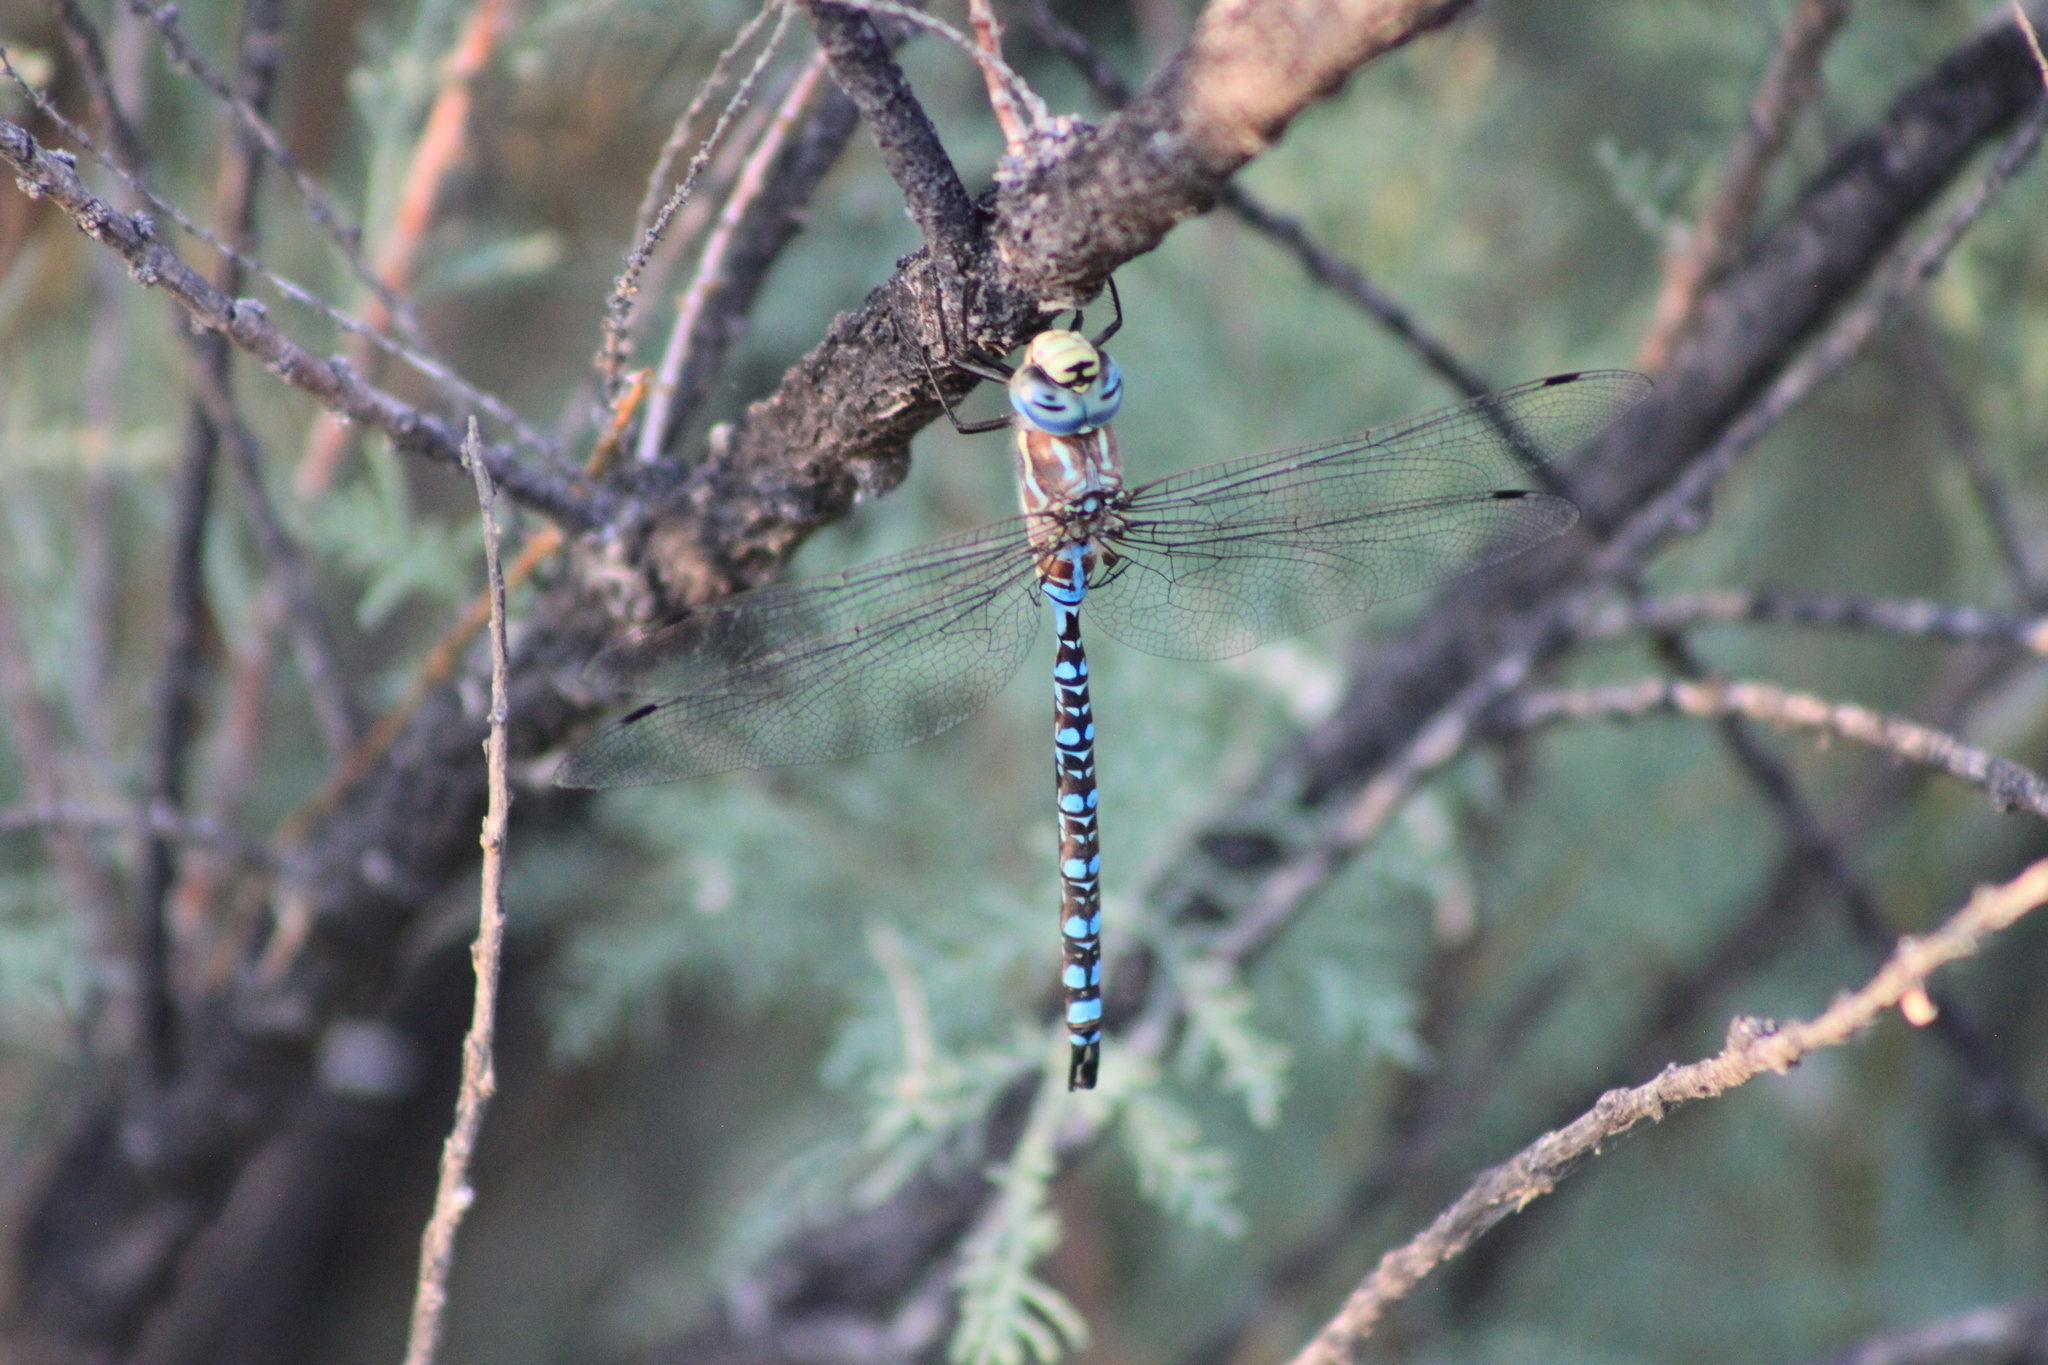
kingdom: Animalia
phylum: Arthropoda
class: Insecta
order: Odonata
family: Aeshnidae
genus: Aeshna
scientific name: Aeshna palmata
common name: Paddle-tailed darner
